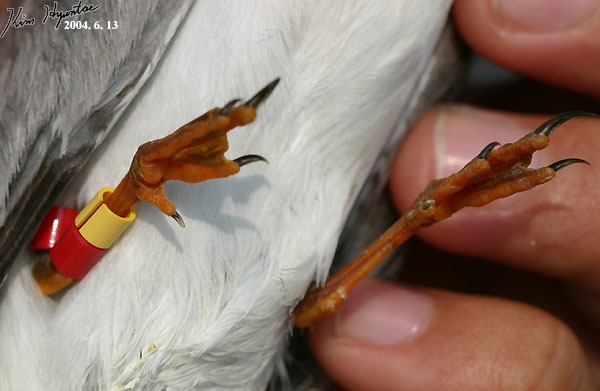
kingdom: Animalia
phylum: Chordata
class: Aves
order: Charadriiformes
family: Laridae
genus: Sternula
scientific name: Sternula albifrons
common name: Little tern
